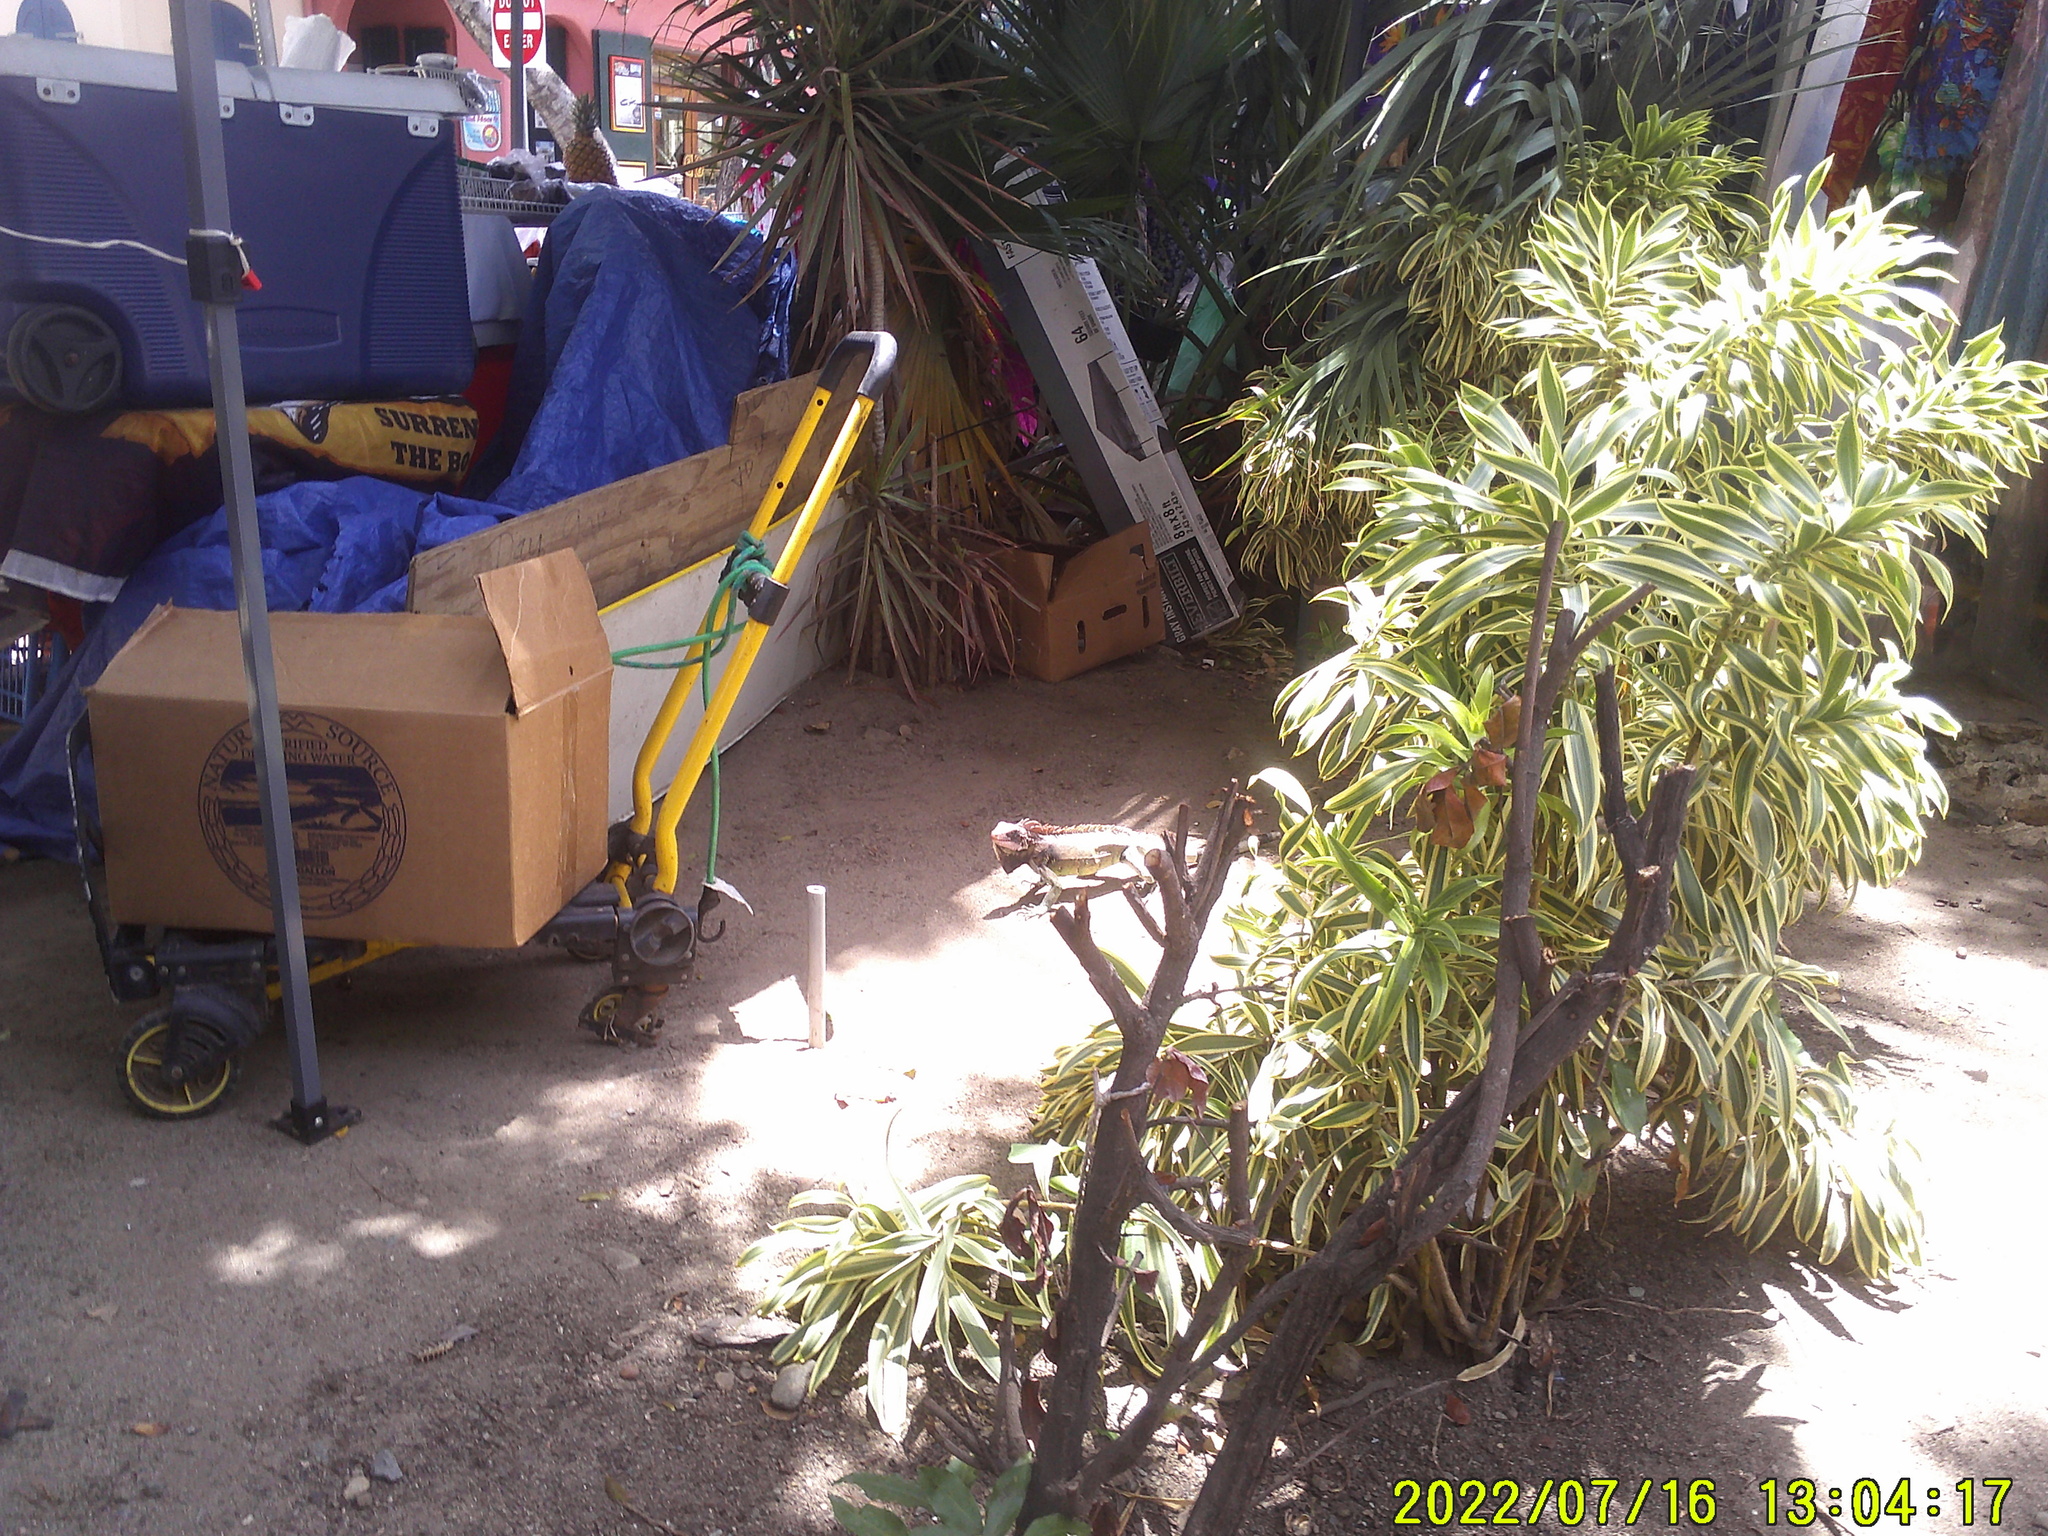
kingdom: Animalia
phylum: Chordata
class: Squamata
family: Iguanidae
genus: Iguana
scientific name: Iguana iguana
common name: Green iguana
